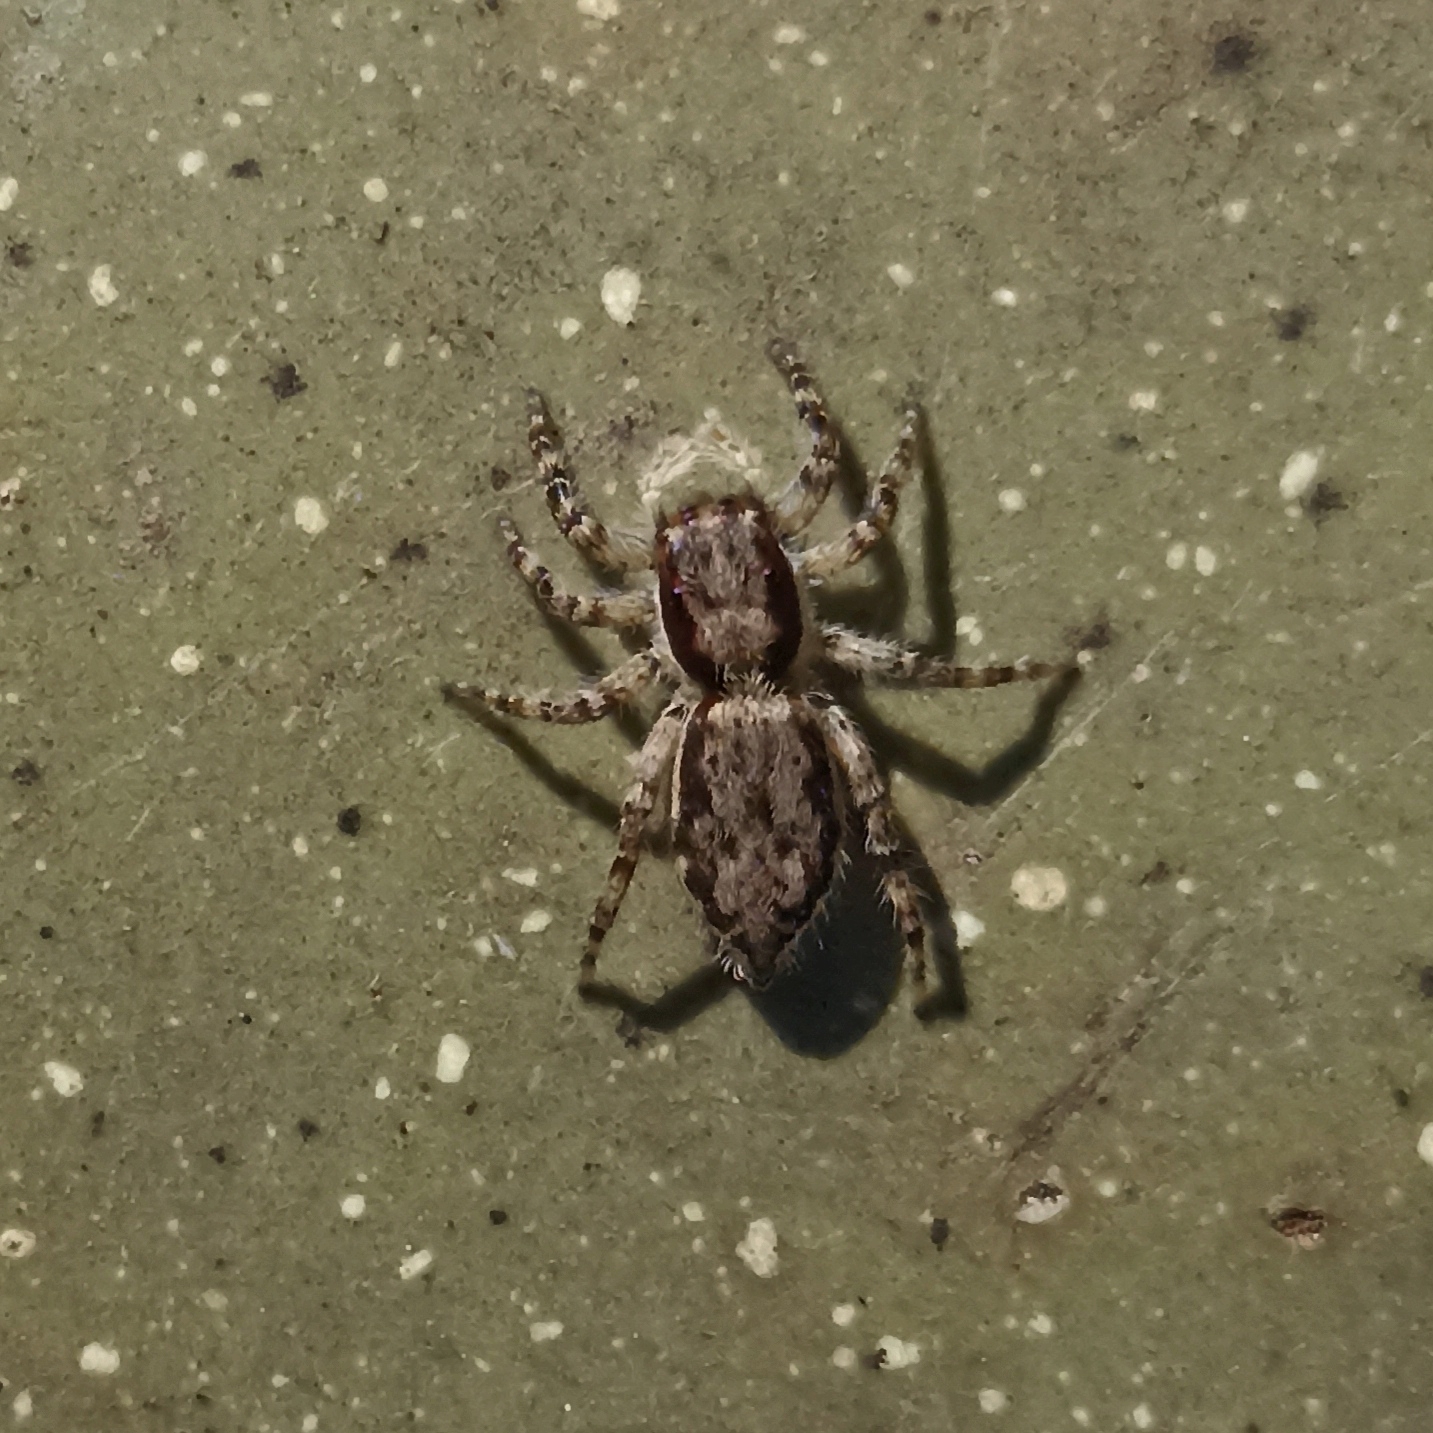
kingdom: Animalia
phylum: Arthropoda
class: Arachnida
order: Araneae
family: Salticidae
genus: Menemerus
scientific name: Menemerus bivittatus
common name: Gray wall jumper
